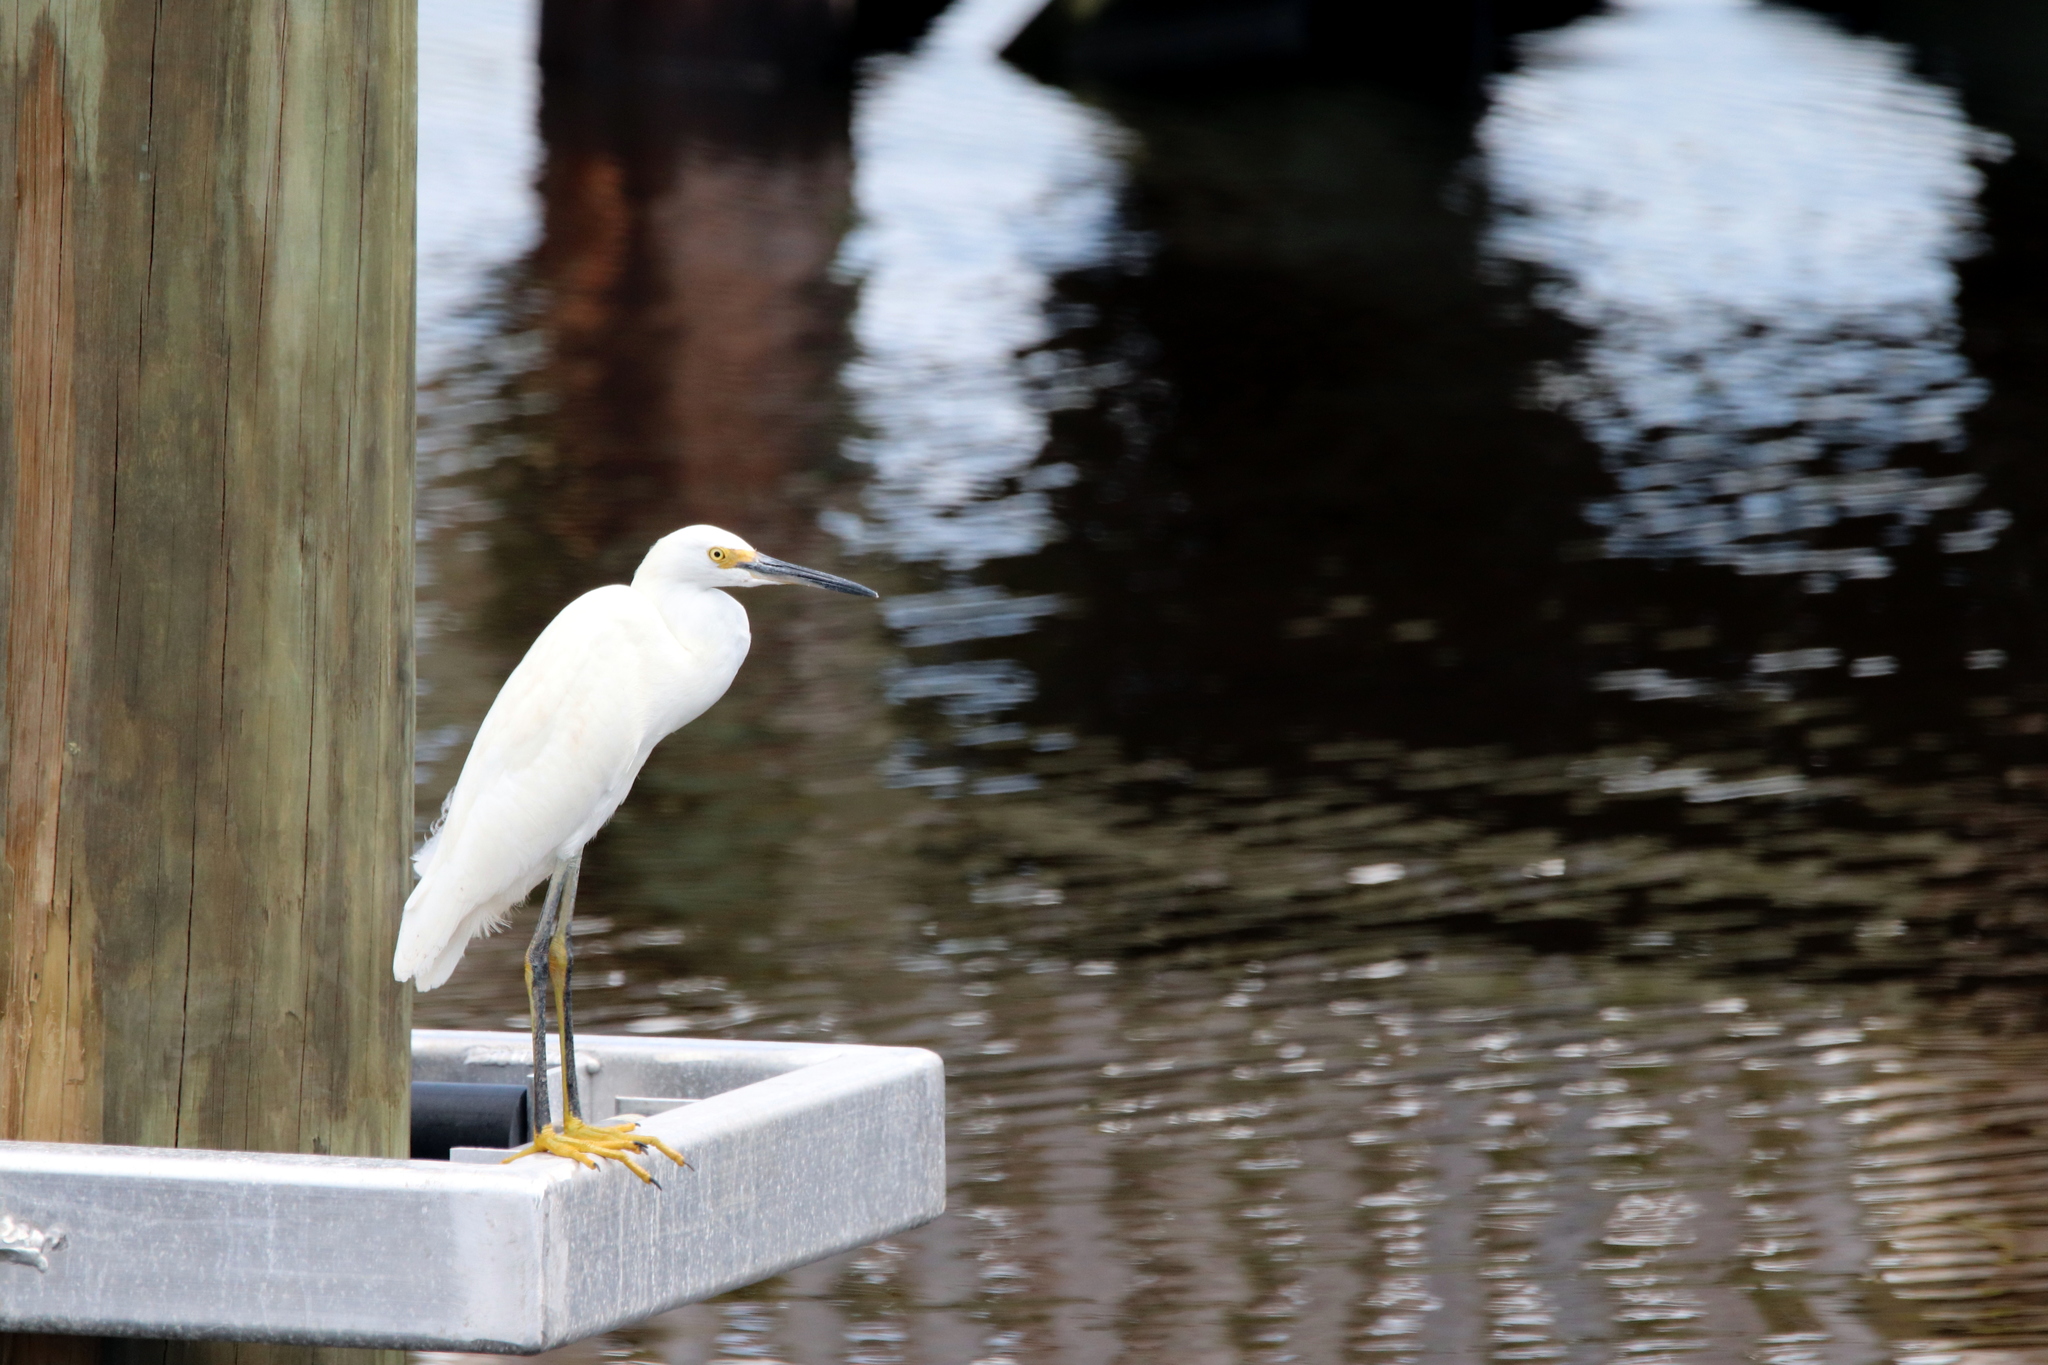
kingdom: Animalia
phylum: Chordata
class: Aves
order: Pelecaniformes
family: Ardeidae
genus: Egretta
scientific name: Egretta thula
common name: Snowy egret
